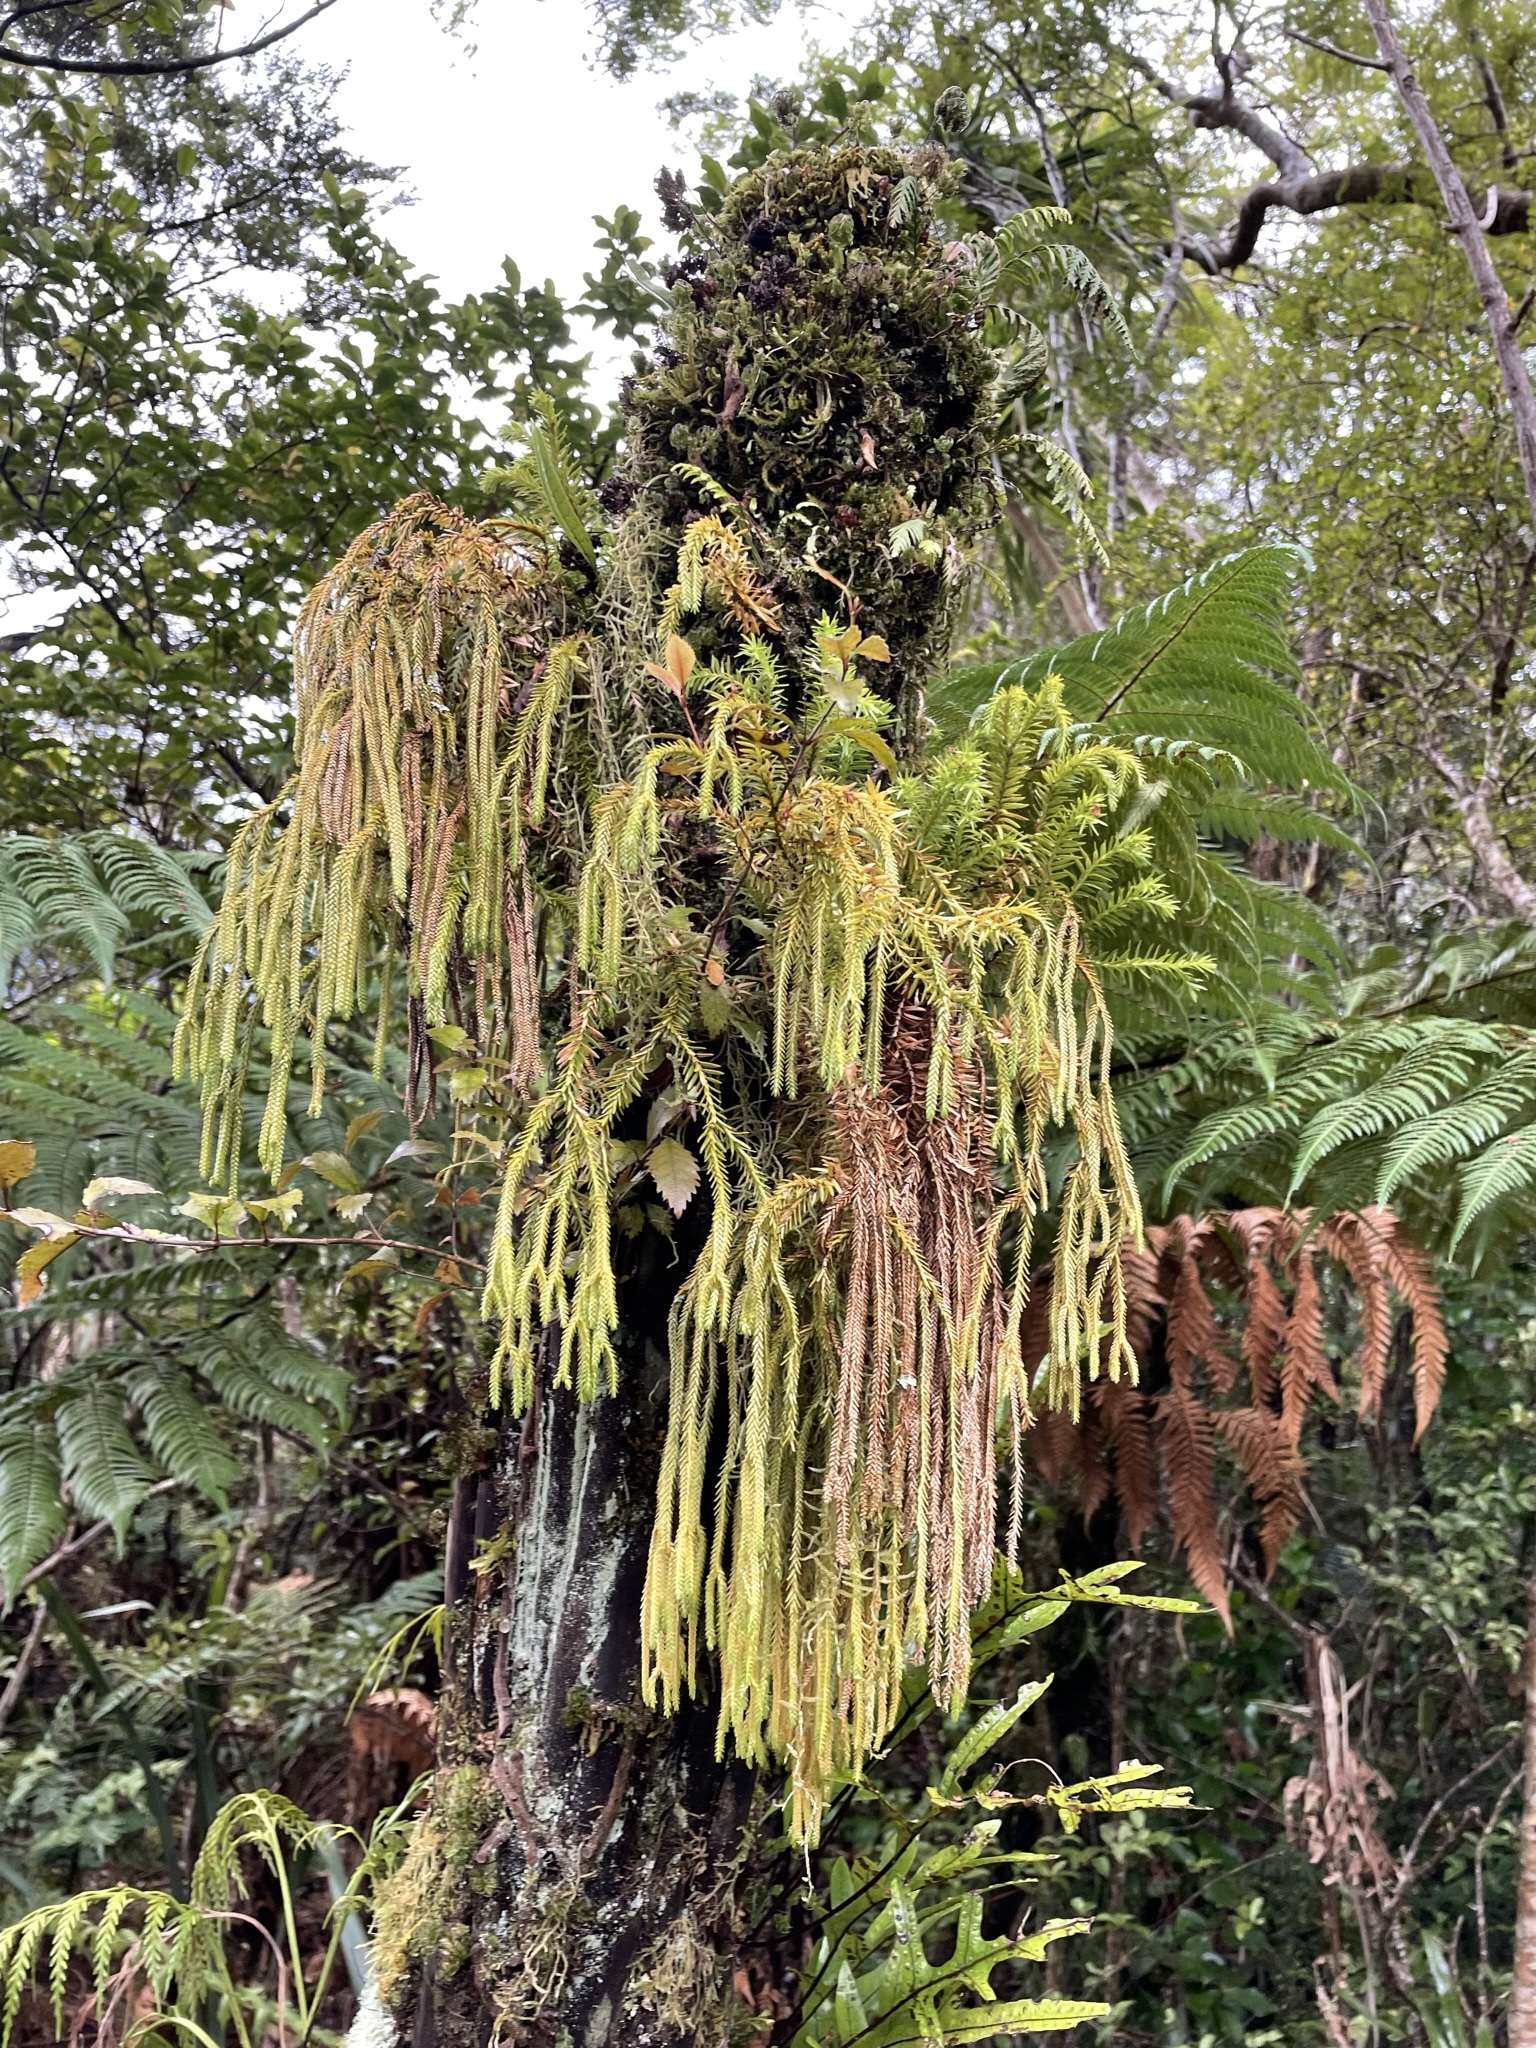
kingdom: Plantae
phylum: Tracheophyta
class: Lycopodiopsida
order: Lycopodiales
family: Lycopodiaceae
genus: Phlegmariurus
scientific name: Phlegmariurus varius
